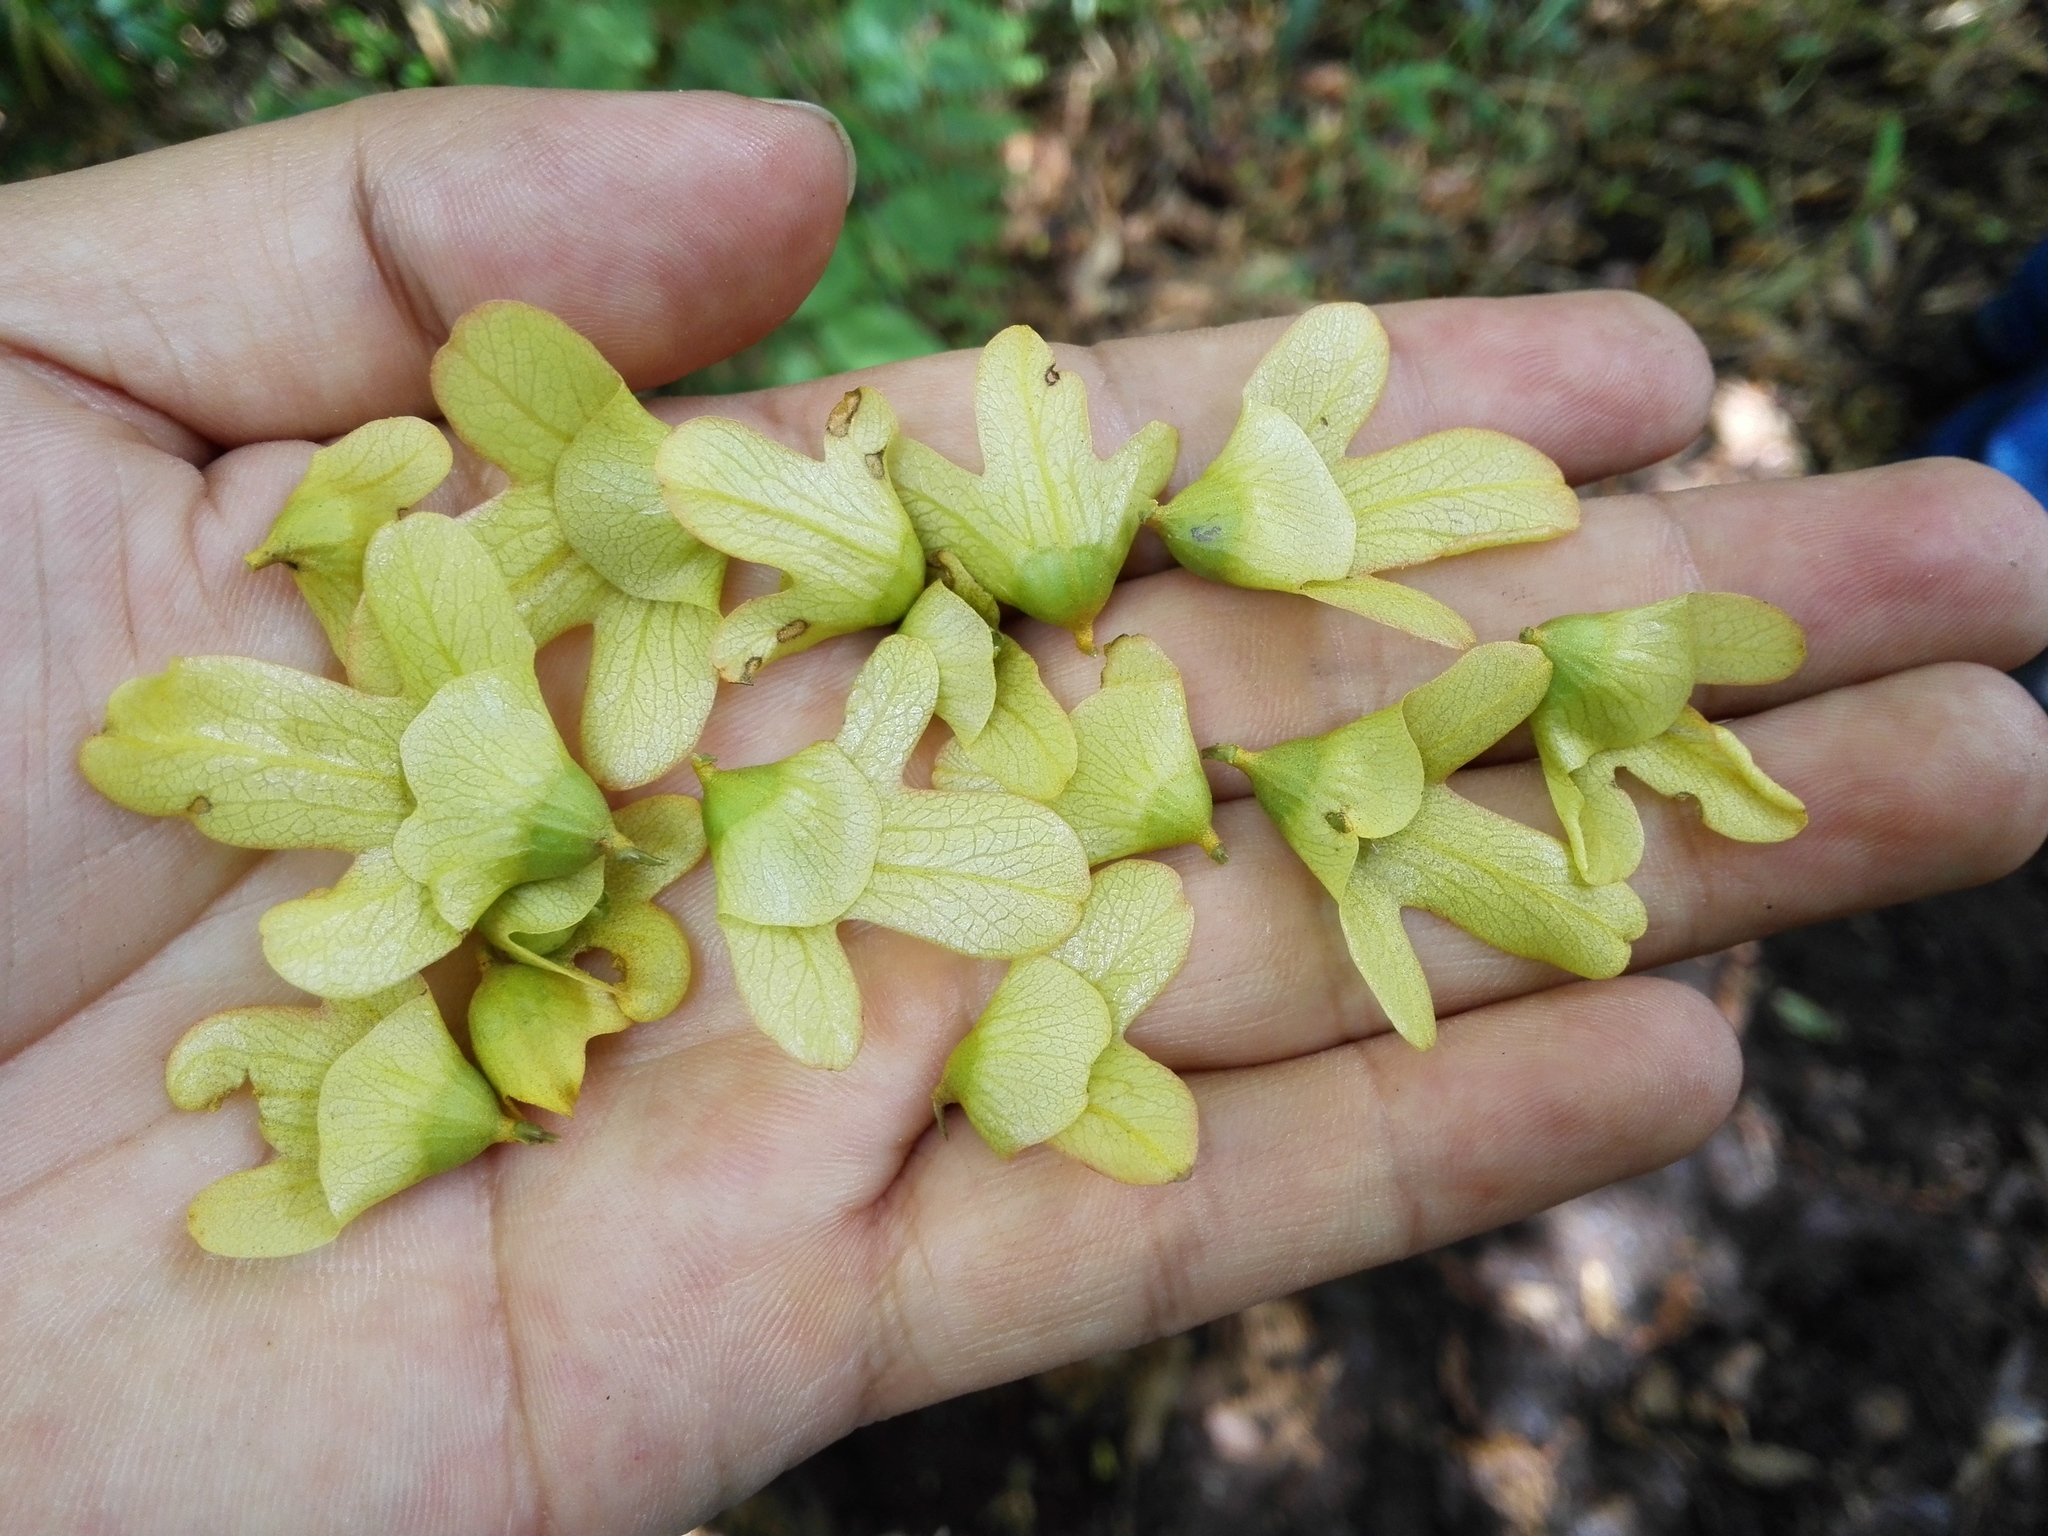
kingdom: Plantae
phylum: Tracheophyta
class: Magnoliopsida
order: Fagales
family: Juglandaceae
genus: Oreomunnea
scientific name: Oreomunnea mexicana
